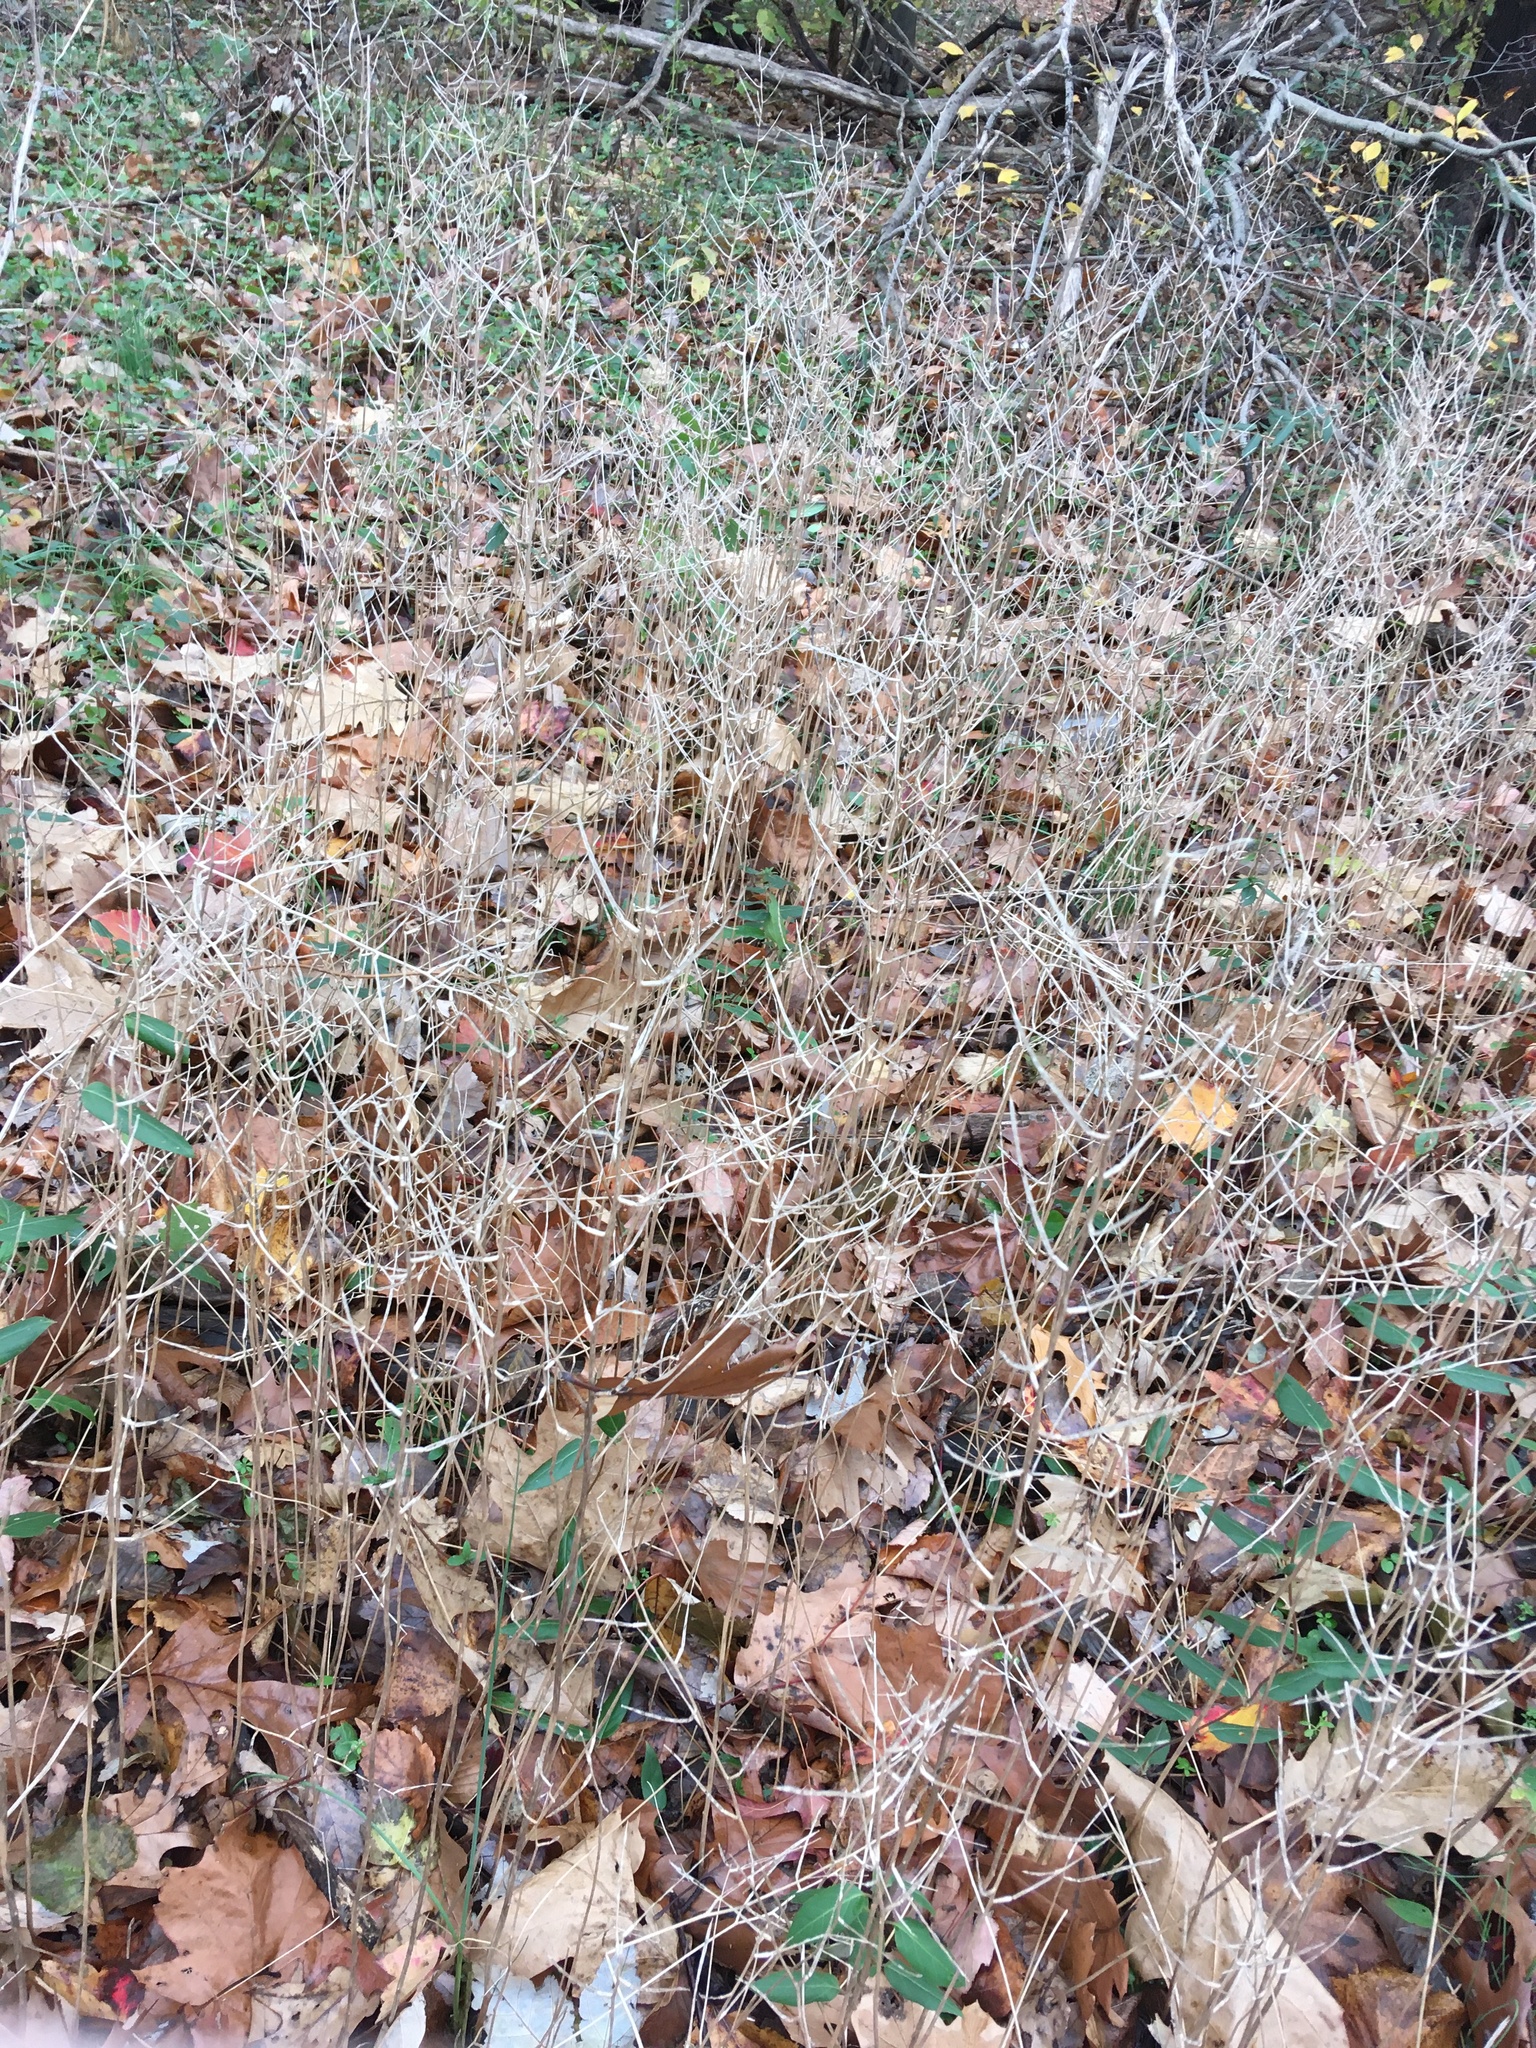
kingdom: Plantae
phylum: Tracheophyta
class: Magnoliopsida
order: Brassicales
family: Brassicaceae
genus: Alliaria
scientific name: Alliaria petiolata
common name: Garlic mustard
